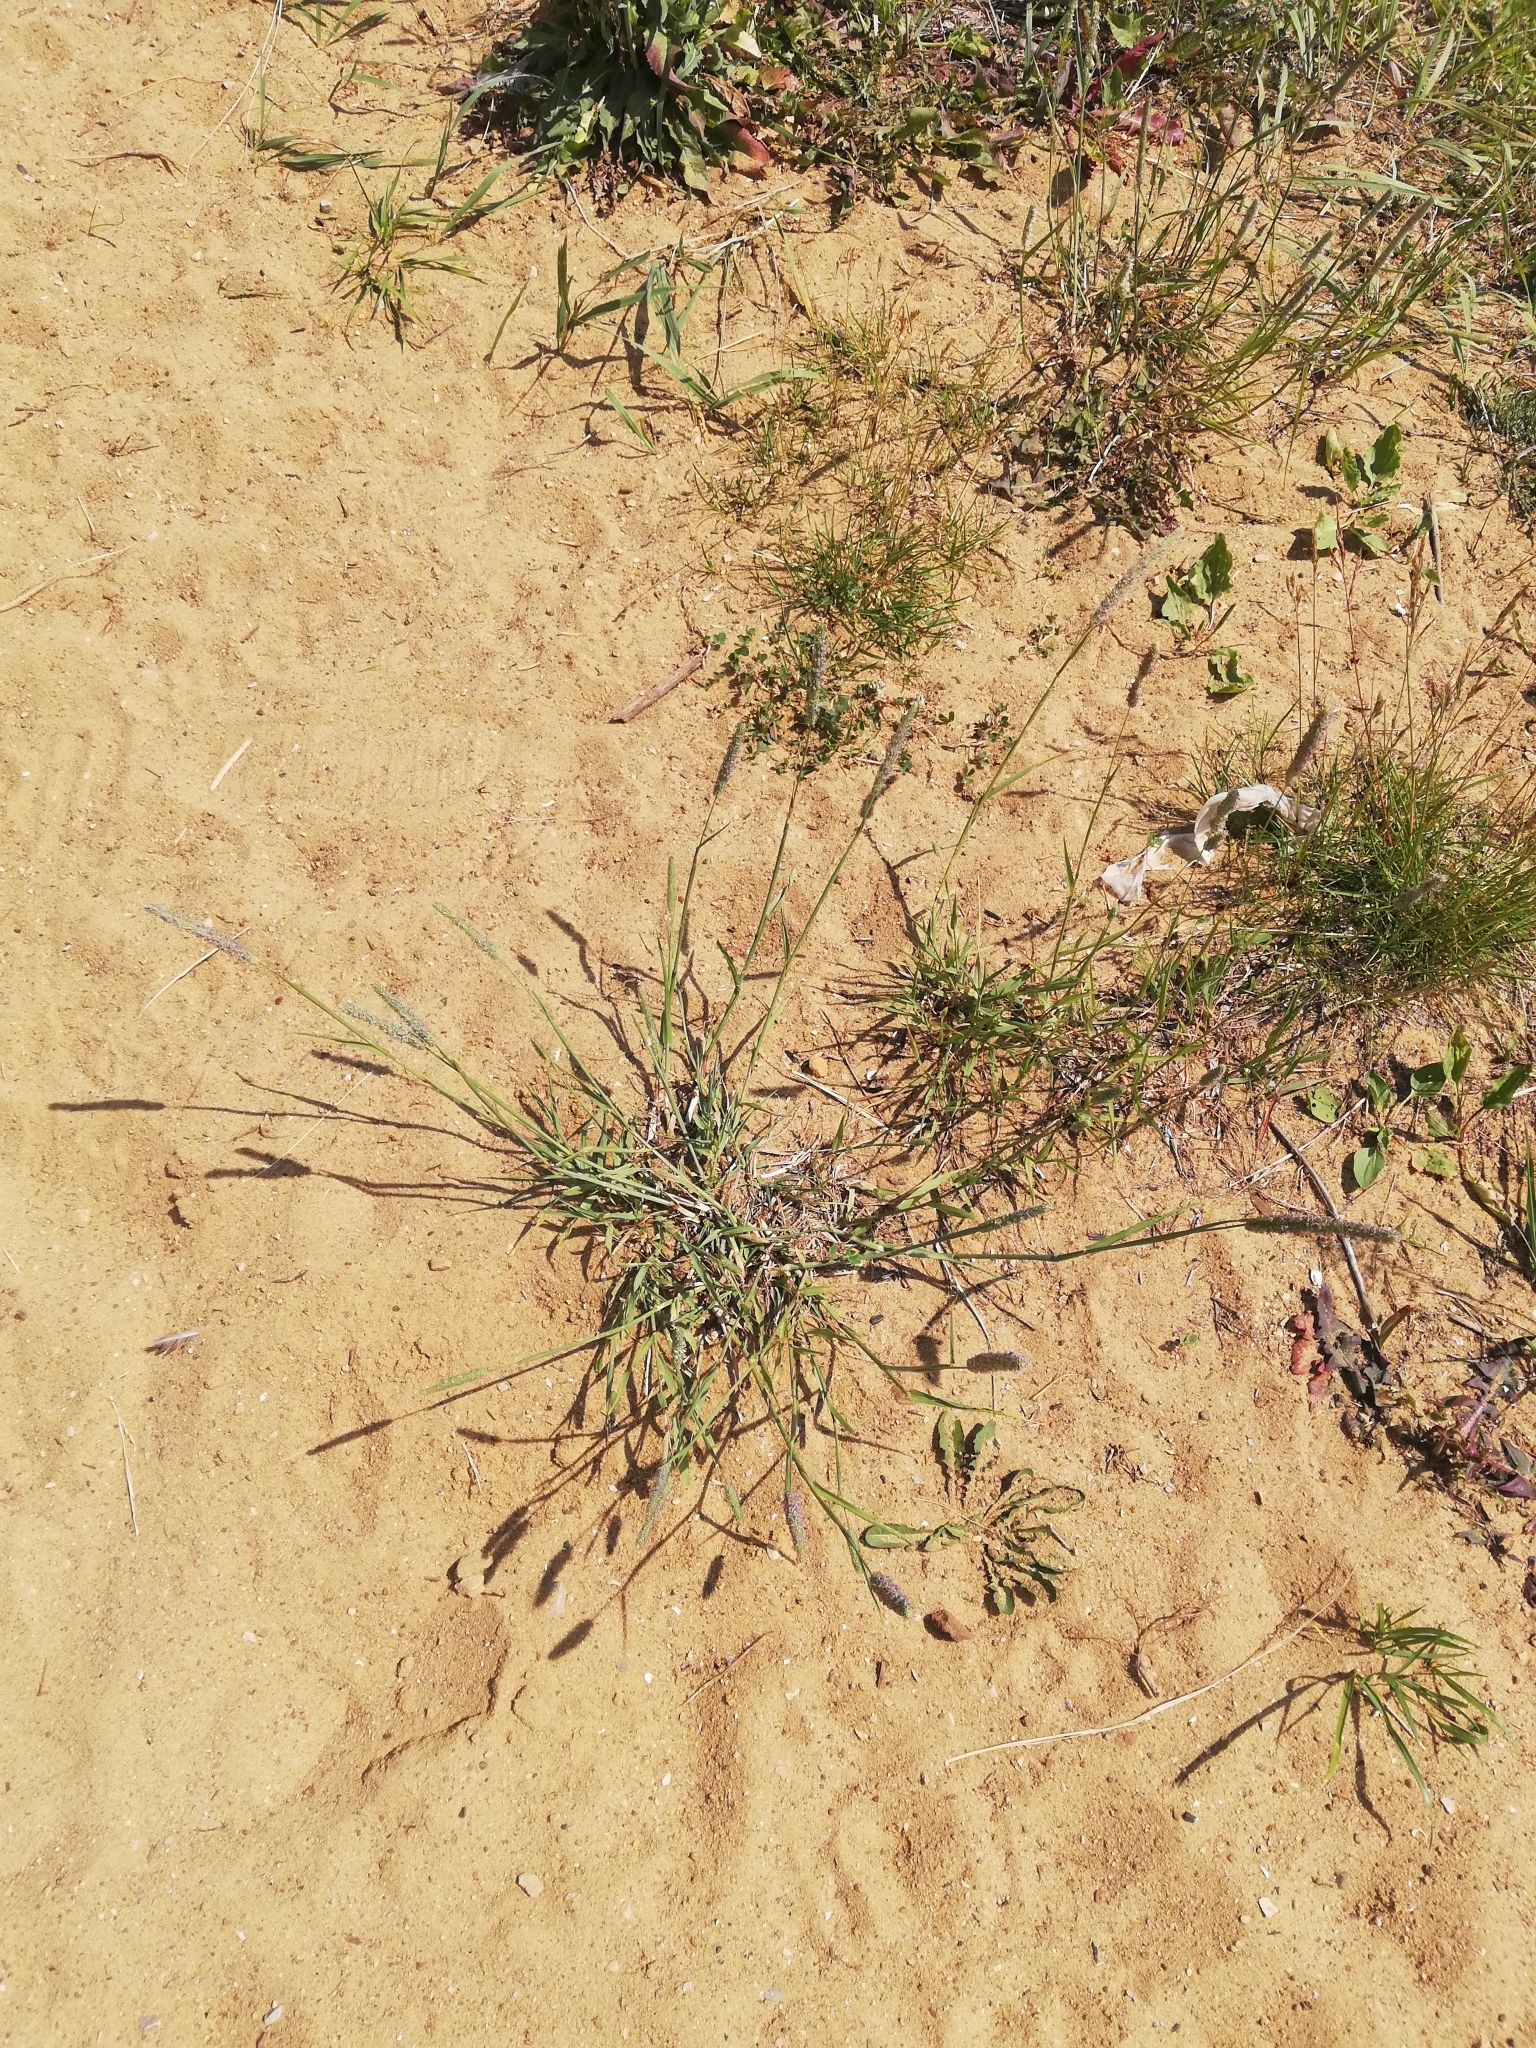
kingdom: Plantae
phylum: Tracheophyta
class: Liliopsida
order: Poales
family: Poaceae
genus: Alopecurus
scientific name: Alopecurus aequalis
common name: Orange foxtail
